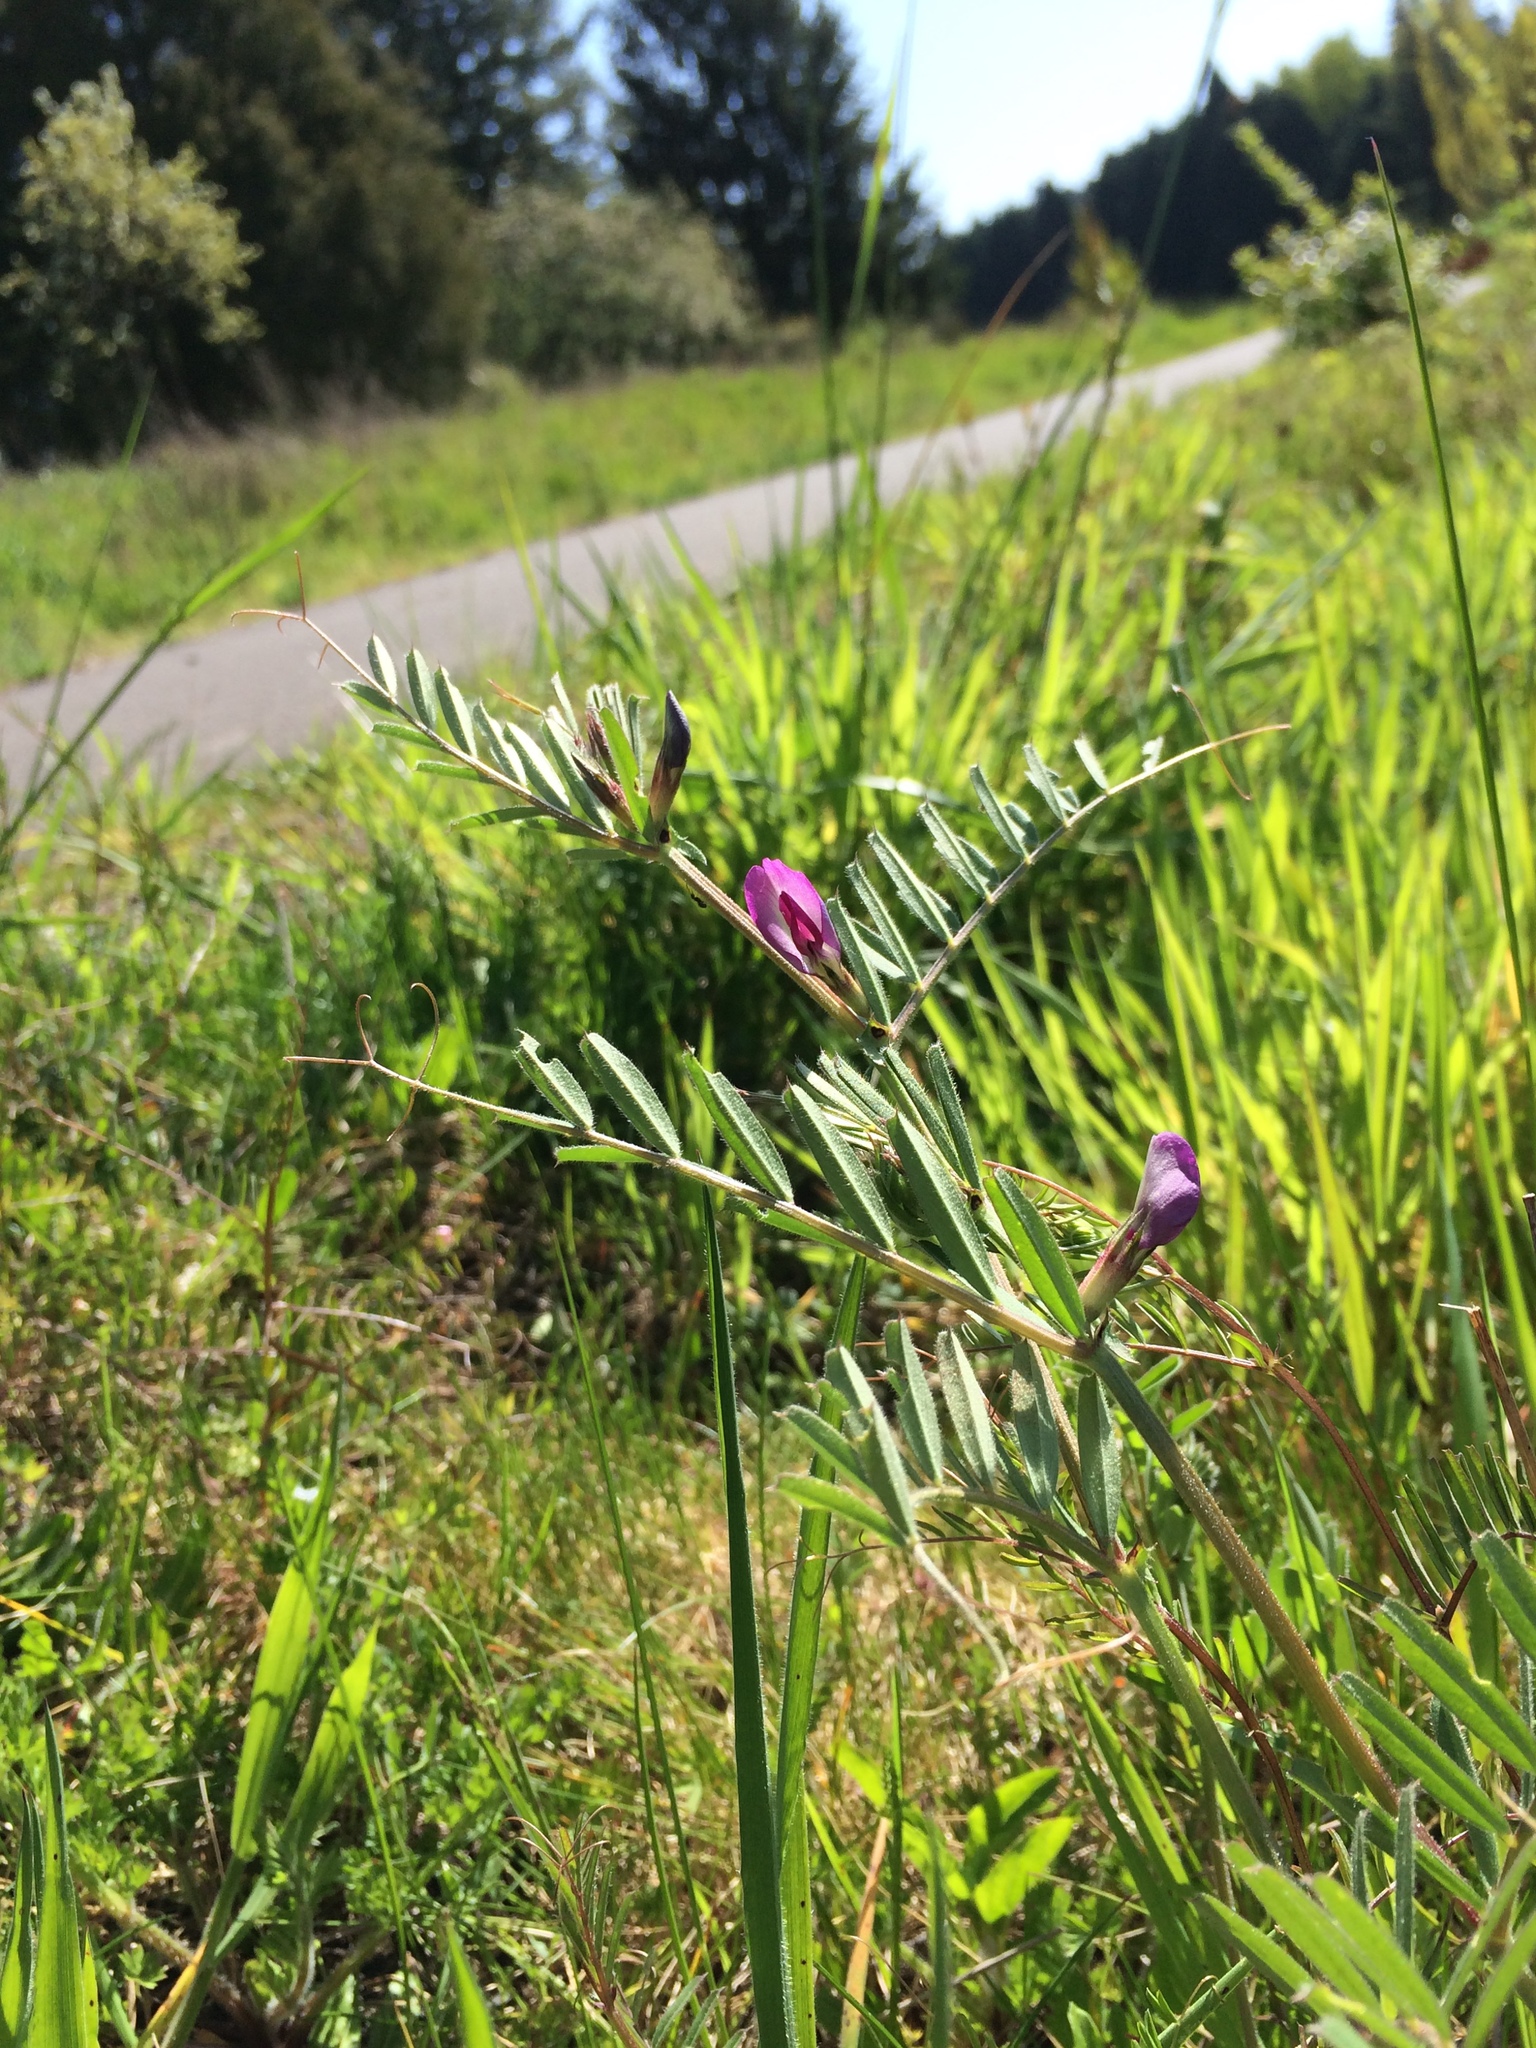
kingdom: Plantae
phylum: Tracheophyta
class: Magnoliopsida
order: Fabales
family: Fabaceae
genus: Vicia
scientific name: Vicia sativa
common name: Garden vetch
